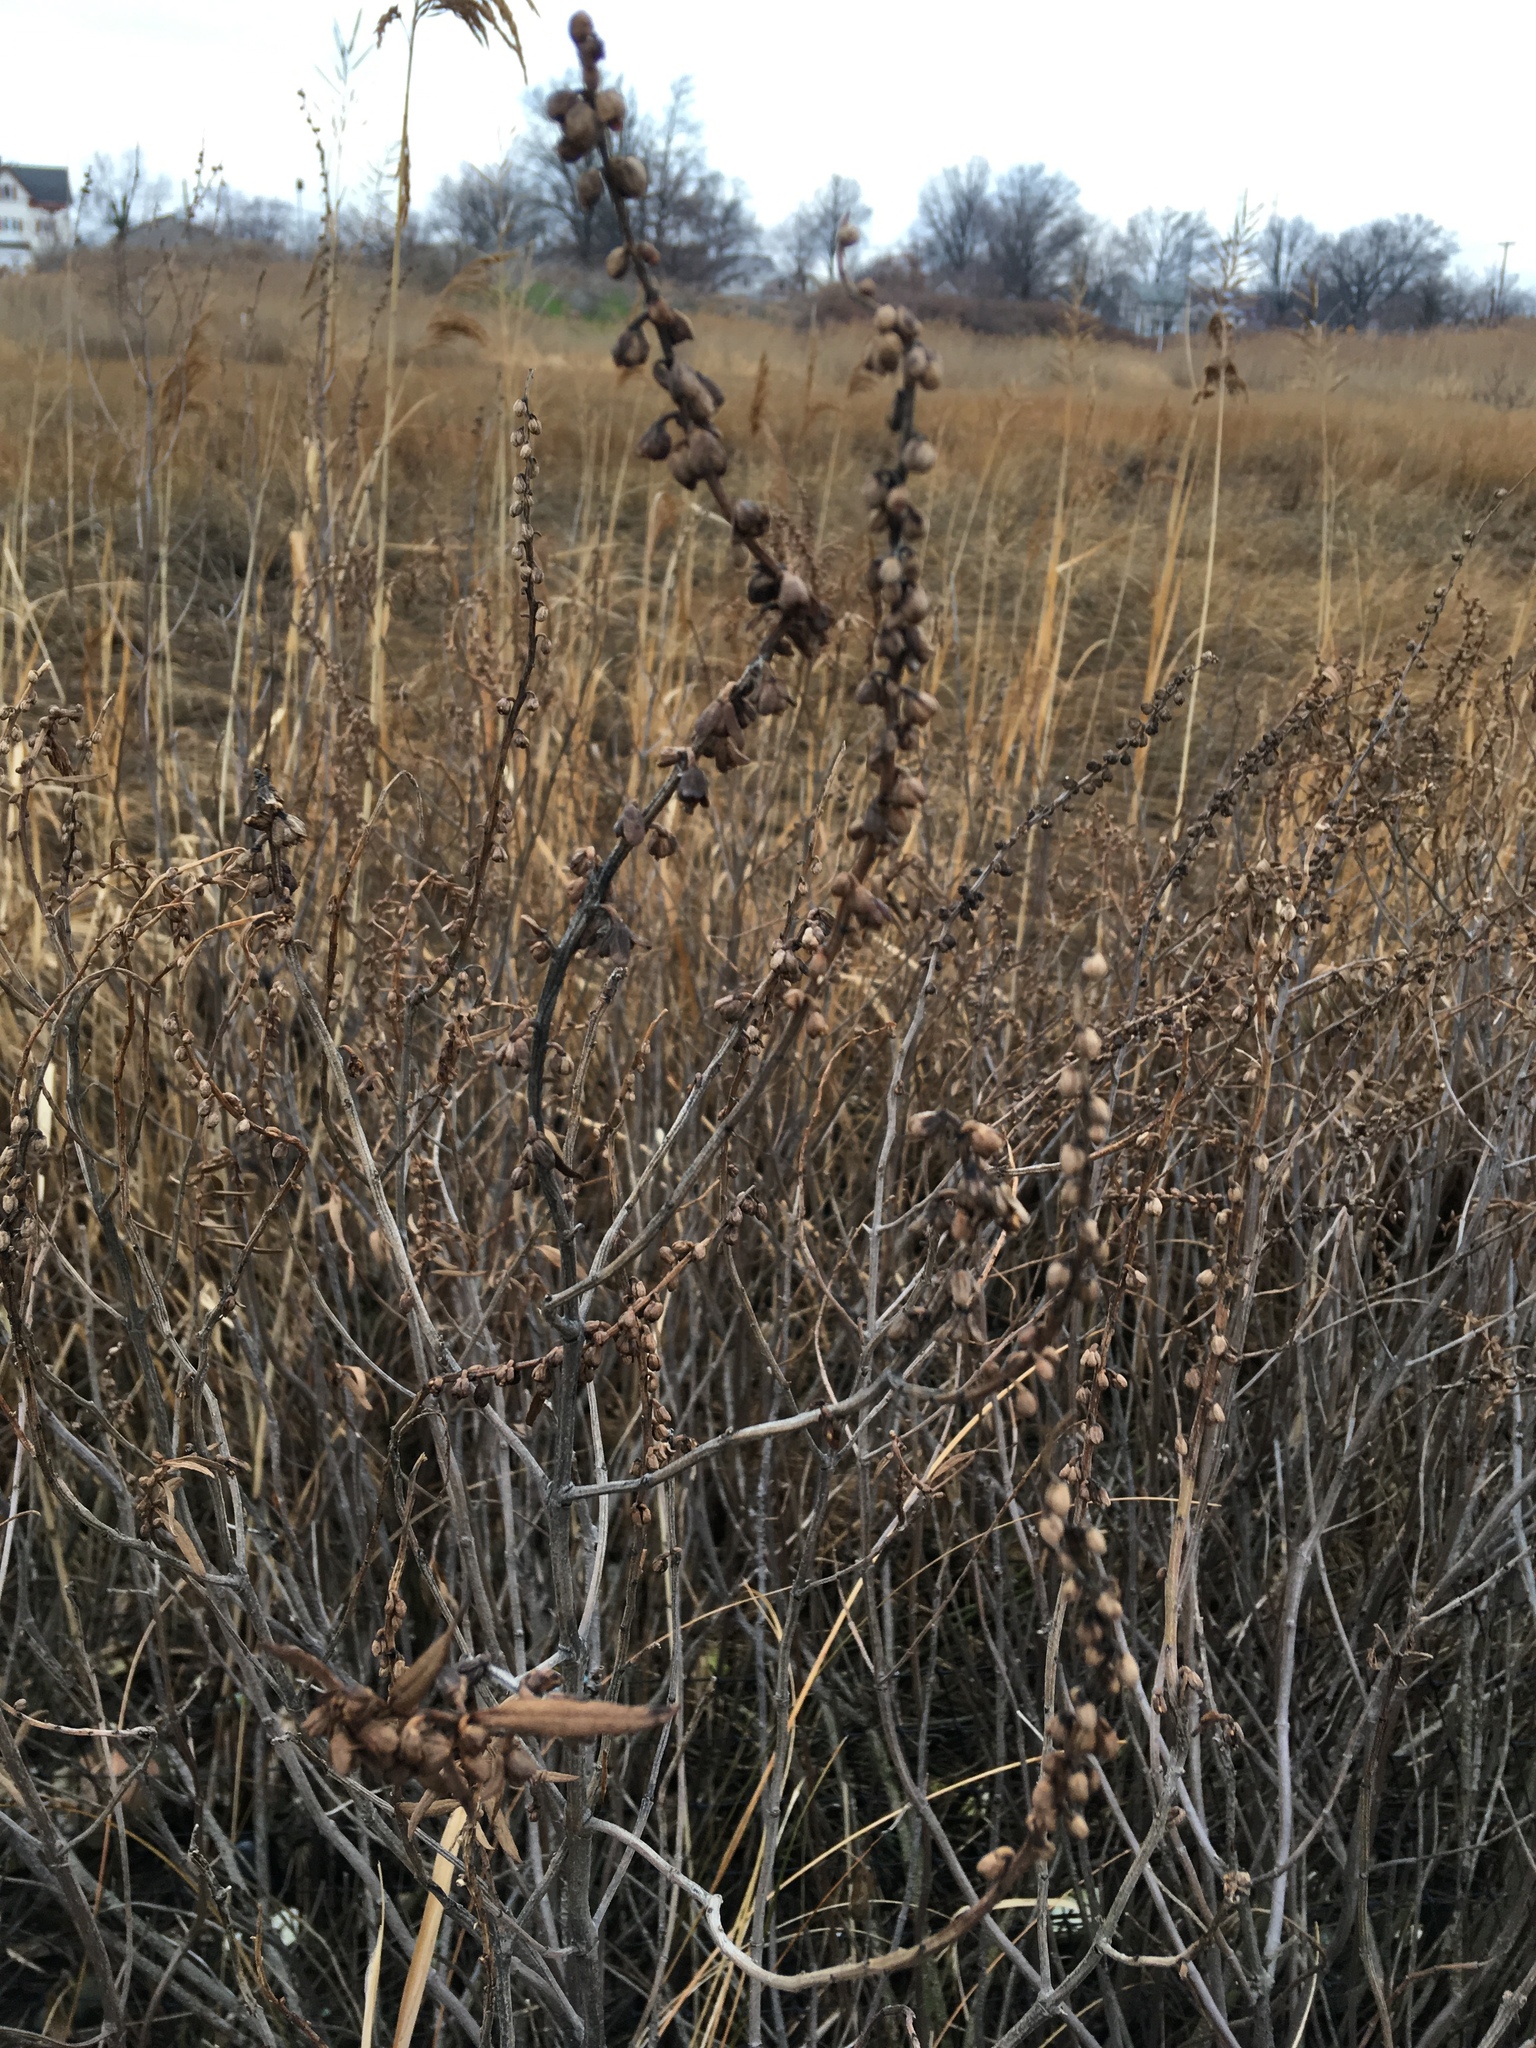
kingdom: Plantae
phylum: Tracheophyta
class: Magnoliopsida
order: Asterales
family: Asteraceae
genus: Iva
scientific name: Iva frutescens
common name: Big-leaved marsh-elder
